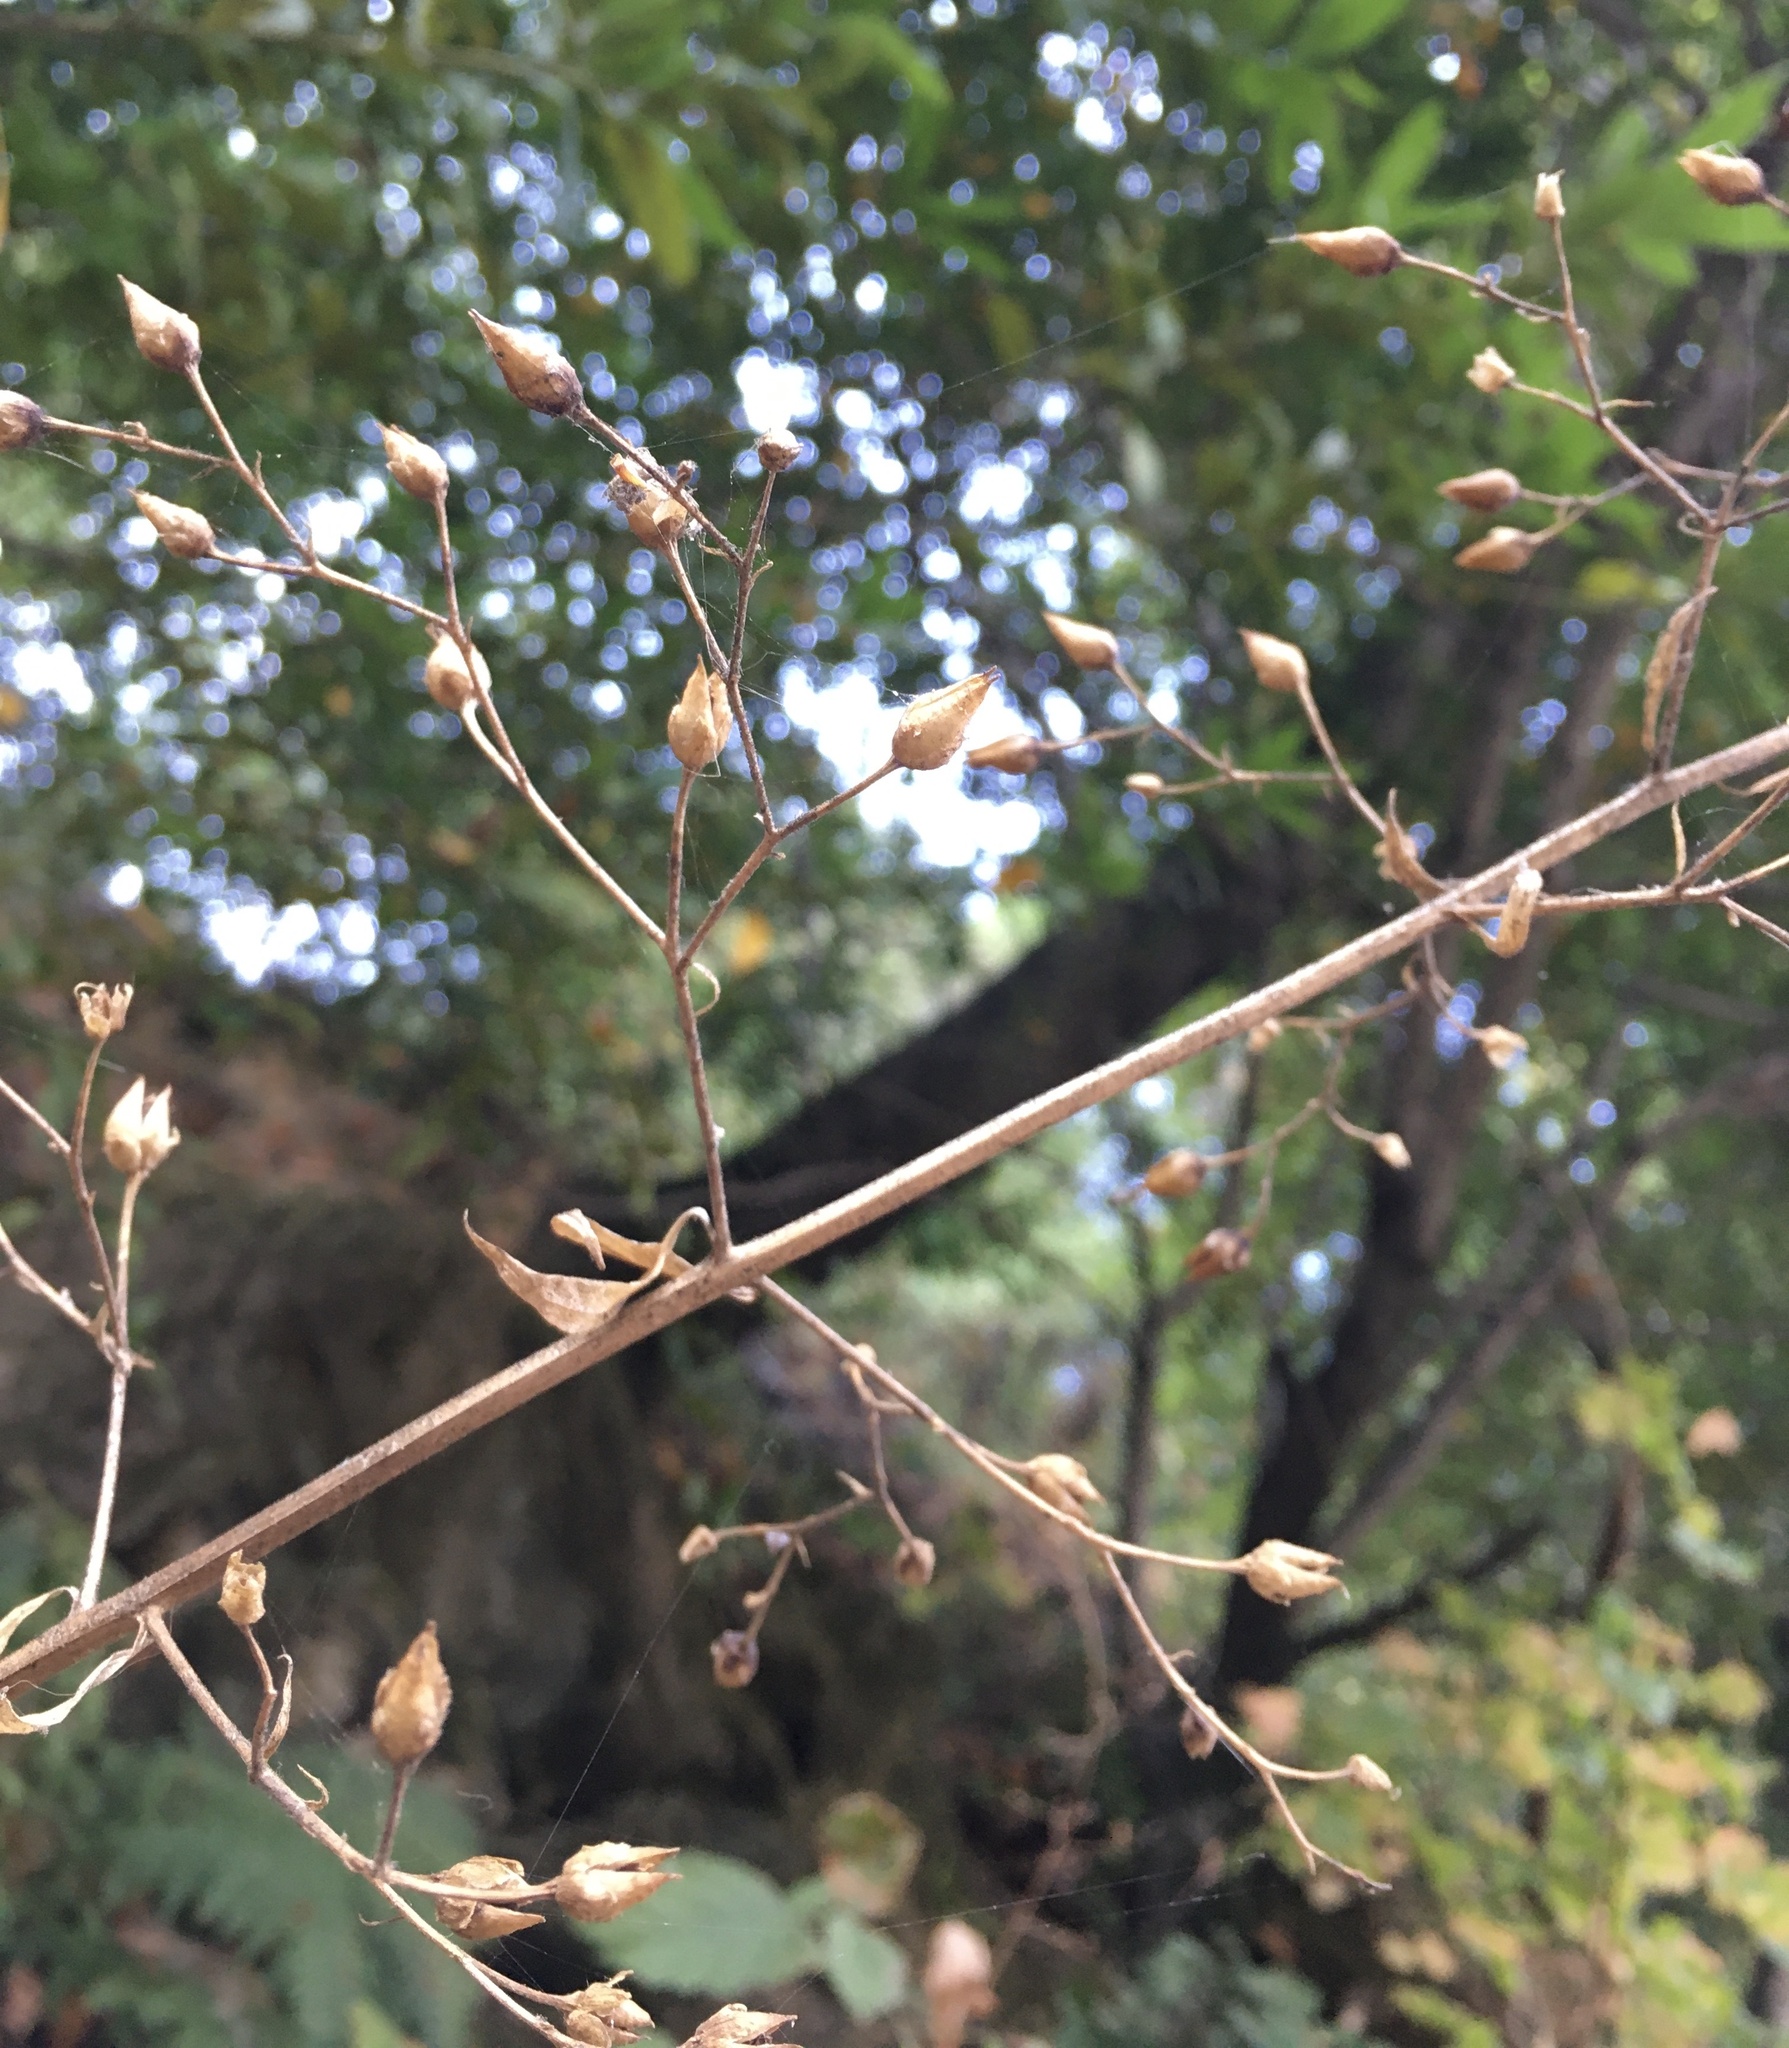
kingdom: Plantae
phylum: Tracheophyta
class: Magnoliopsida
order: Lamiales
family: Scrophulariaceae
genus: Scrophularia
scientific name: Scrophularia californica
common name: California figwort
